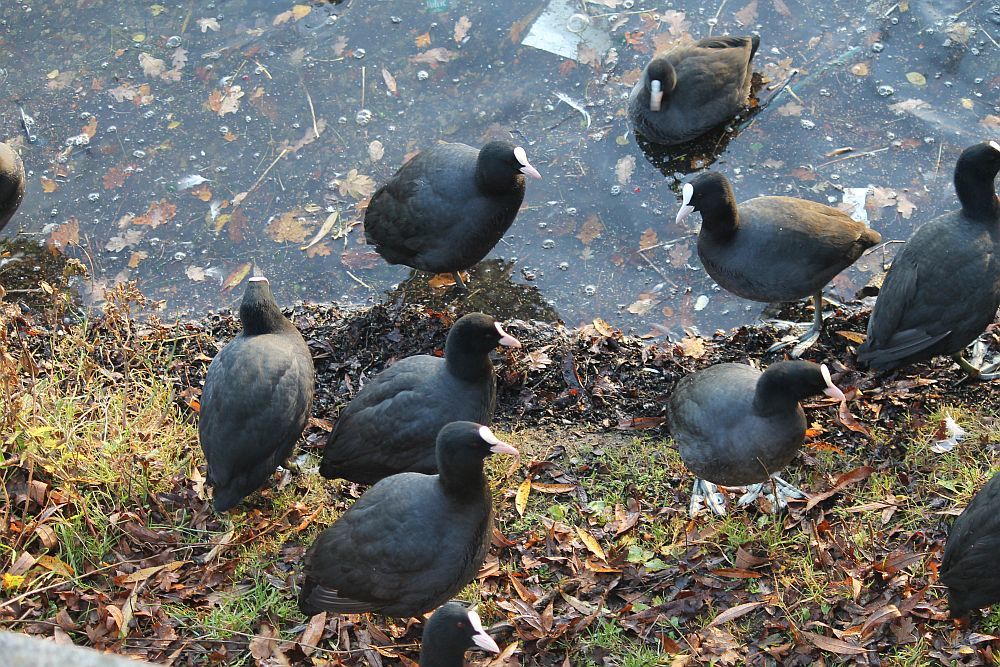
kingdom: Animalia
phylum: Chordata
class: Aves
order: Gruiformes
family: Rallidae
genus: Fulica
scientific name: Fulica atra
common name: Eurasian coot
